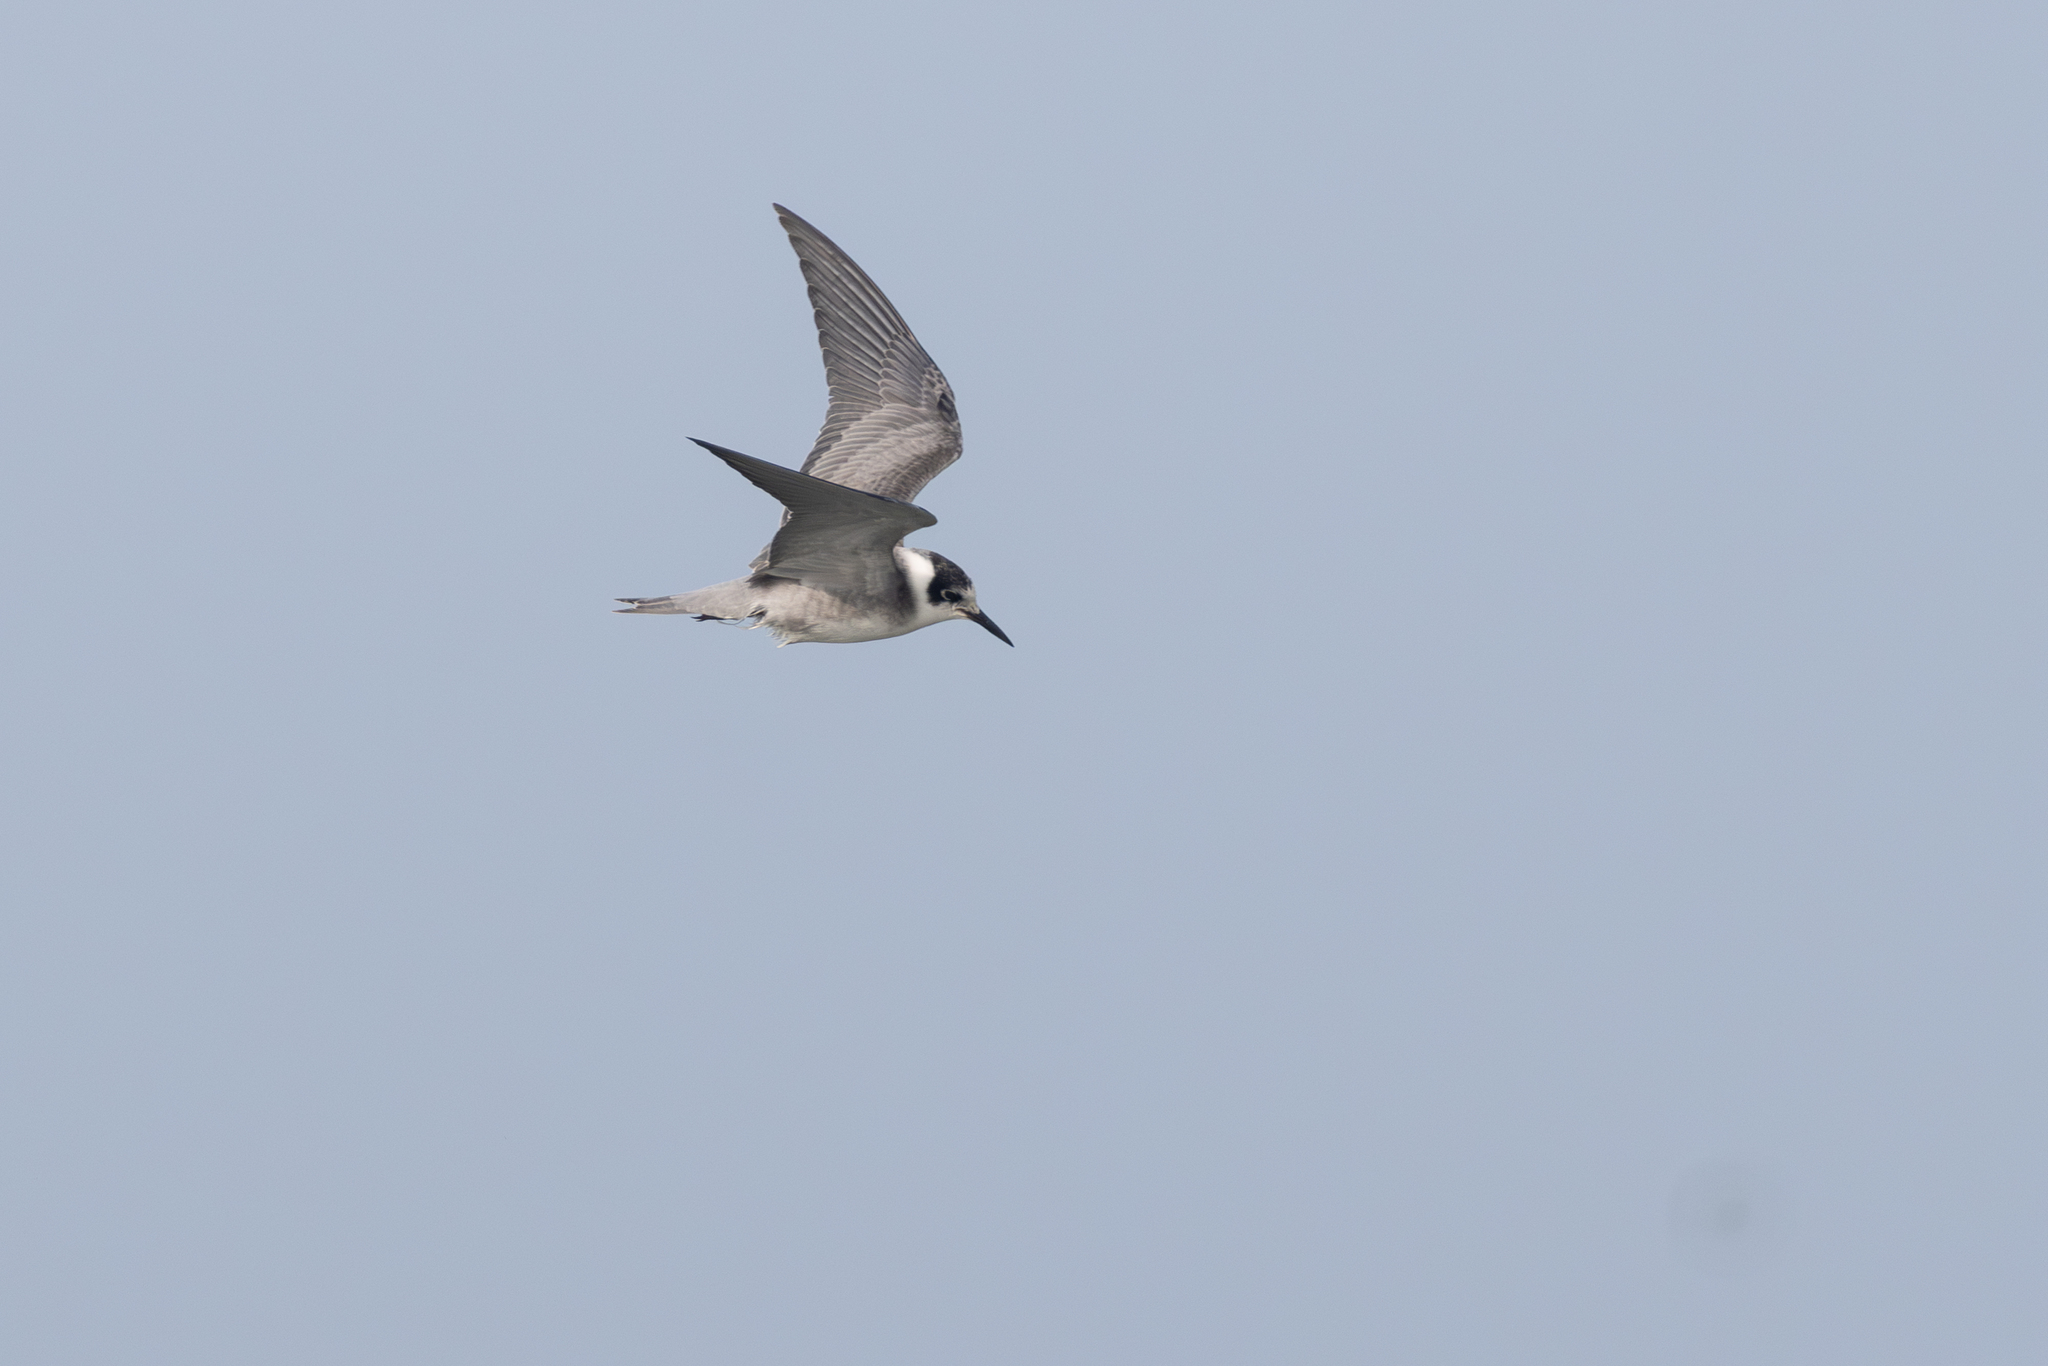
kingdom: Animalia
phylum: Chordata
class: Aves
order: Charadriiformes
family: Laridae
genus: Chlidonias
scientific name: Chlidonias niger
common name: Black tern
